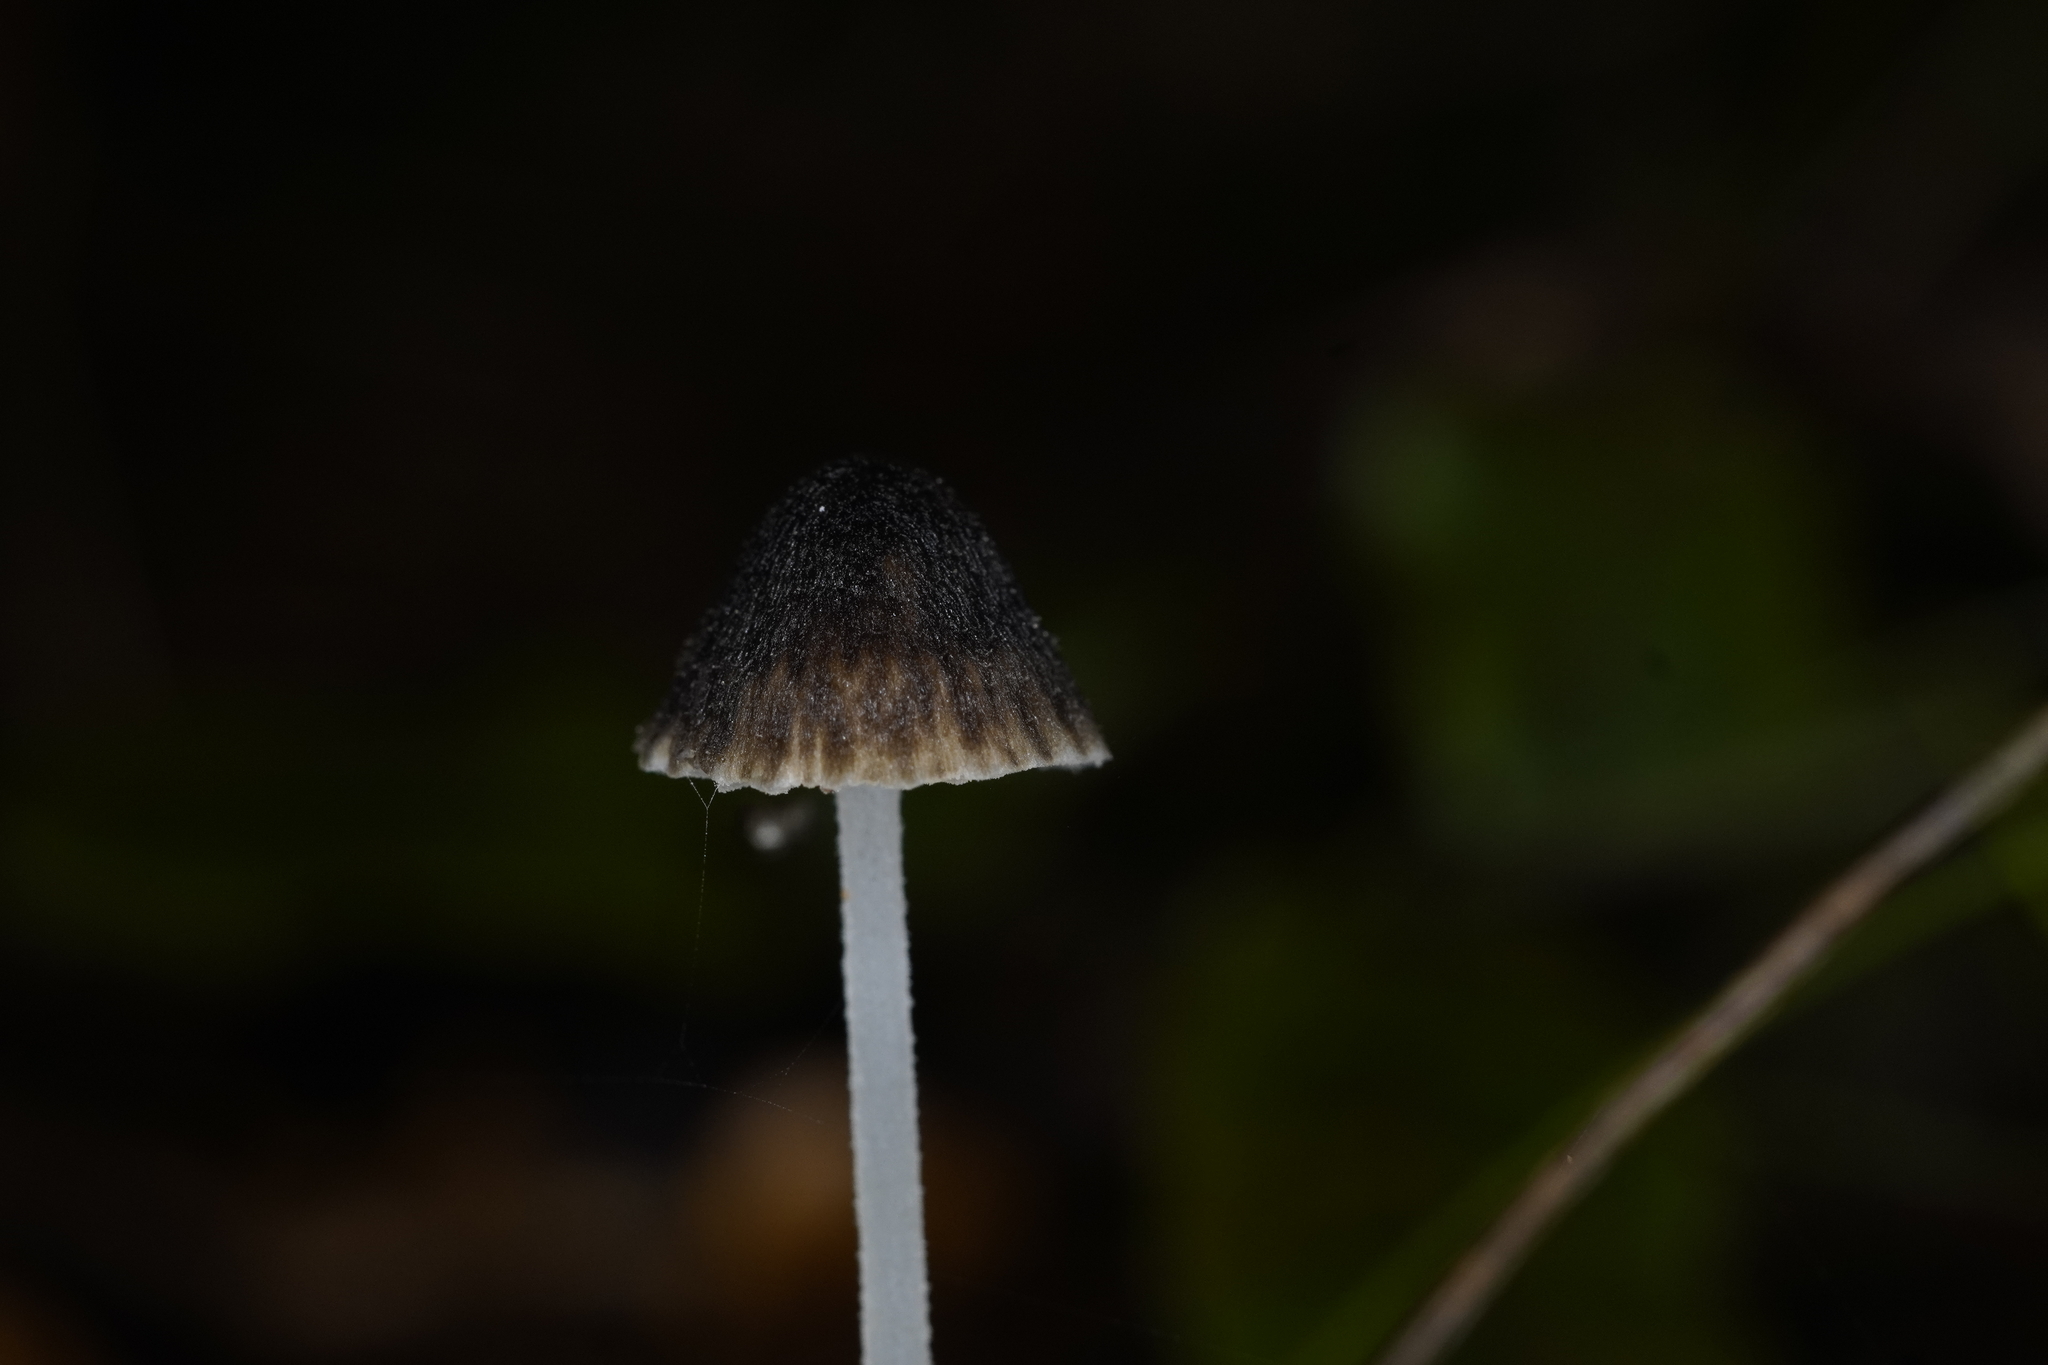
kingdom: Fungi
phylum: Basidiomycota
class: Agaricomycetes
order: Agaricales
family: Porotheleaceae
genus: Pseudohydropus
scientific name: Pseudohydropus parafunebris
